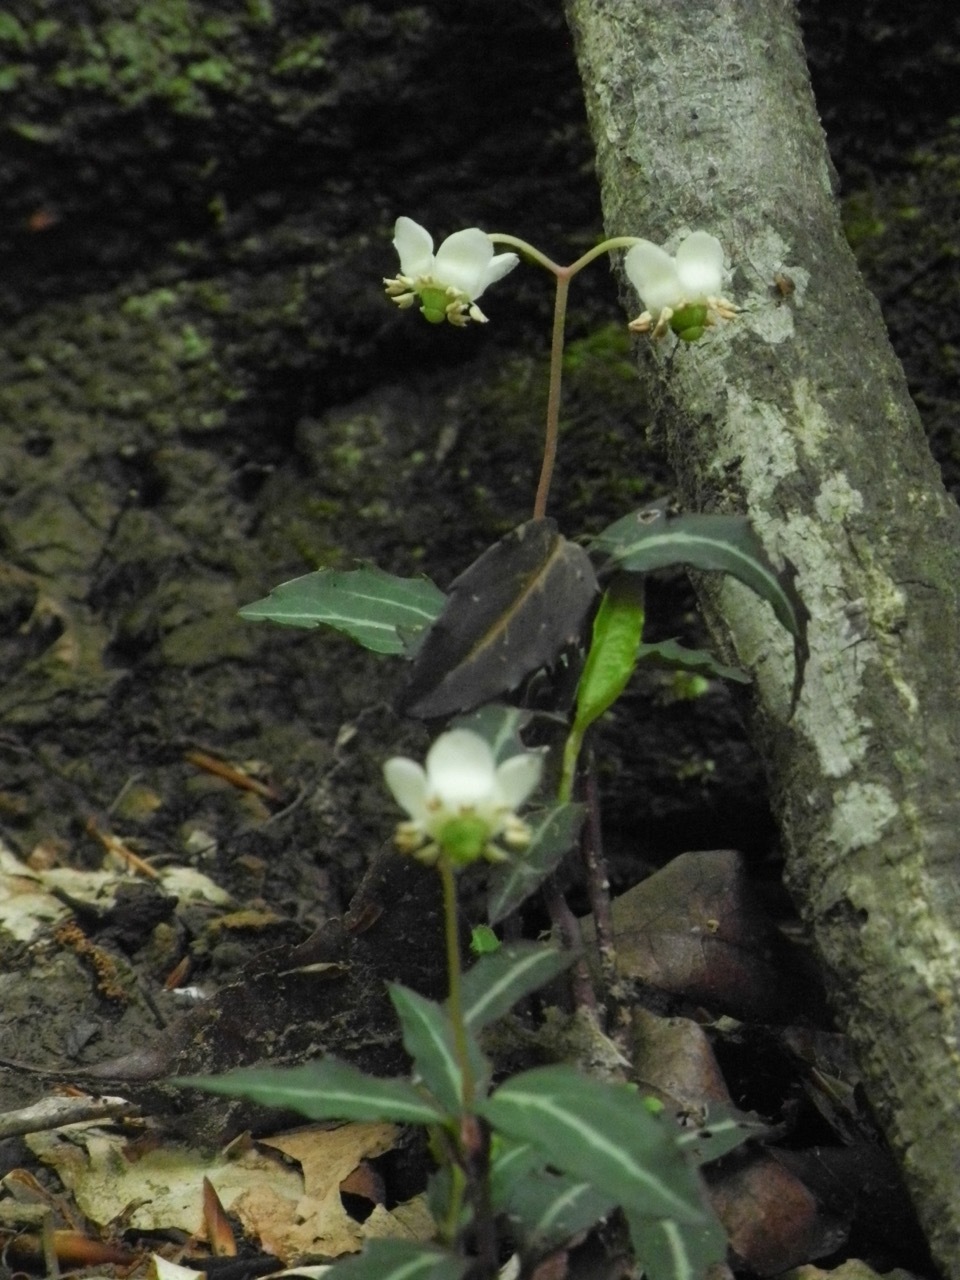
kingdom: Plantae
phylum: Tracheophyta
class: Magnoliopsida
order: Ericales
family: Ericaceae
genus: Chimaphila
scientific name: Chimaphila maculata
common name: Spotted pipsissewa
